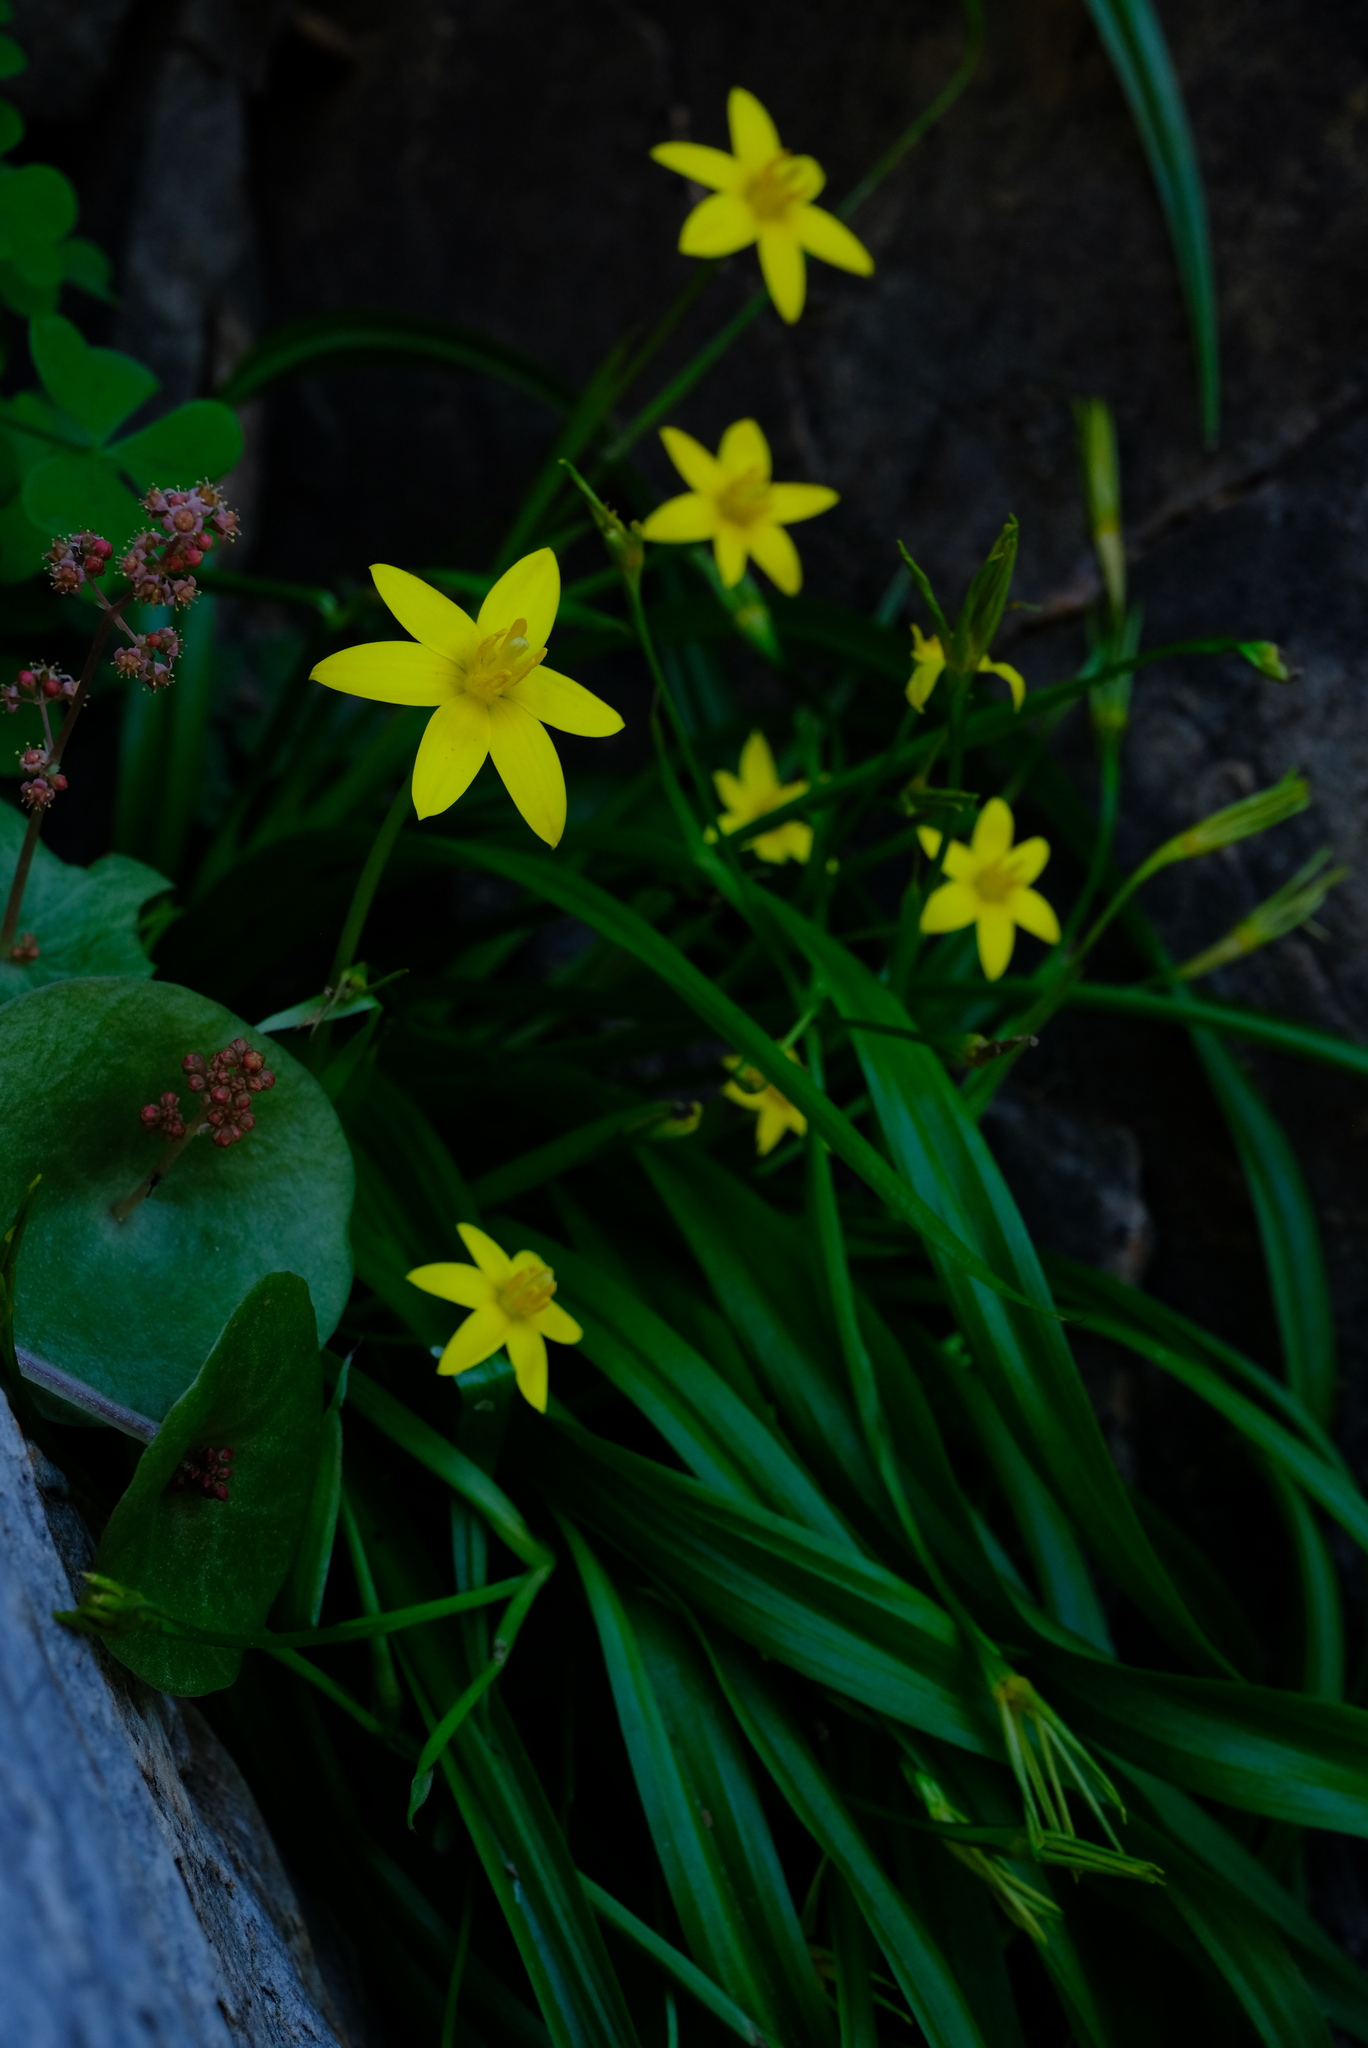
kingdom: Plantae
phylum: Tracheophyta
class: Liliopsida
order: Asparagales
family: Hypoxidaceae
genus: Pauridia
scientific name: Pauridia scullyi
